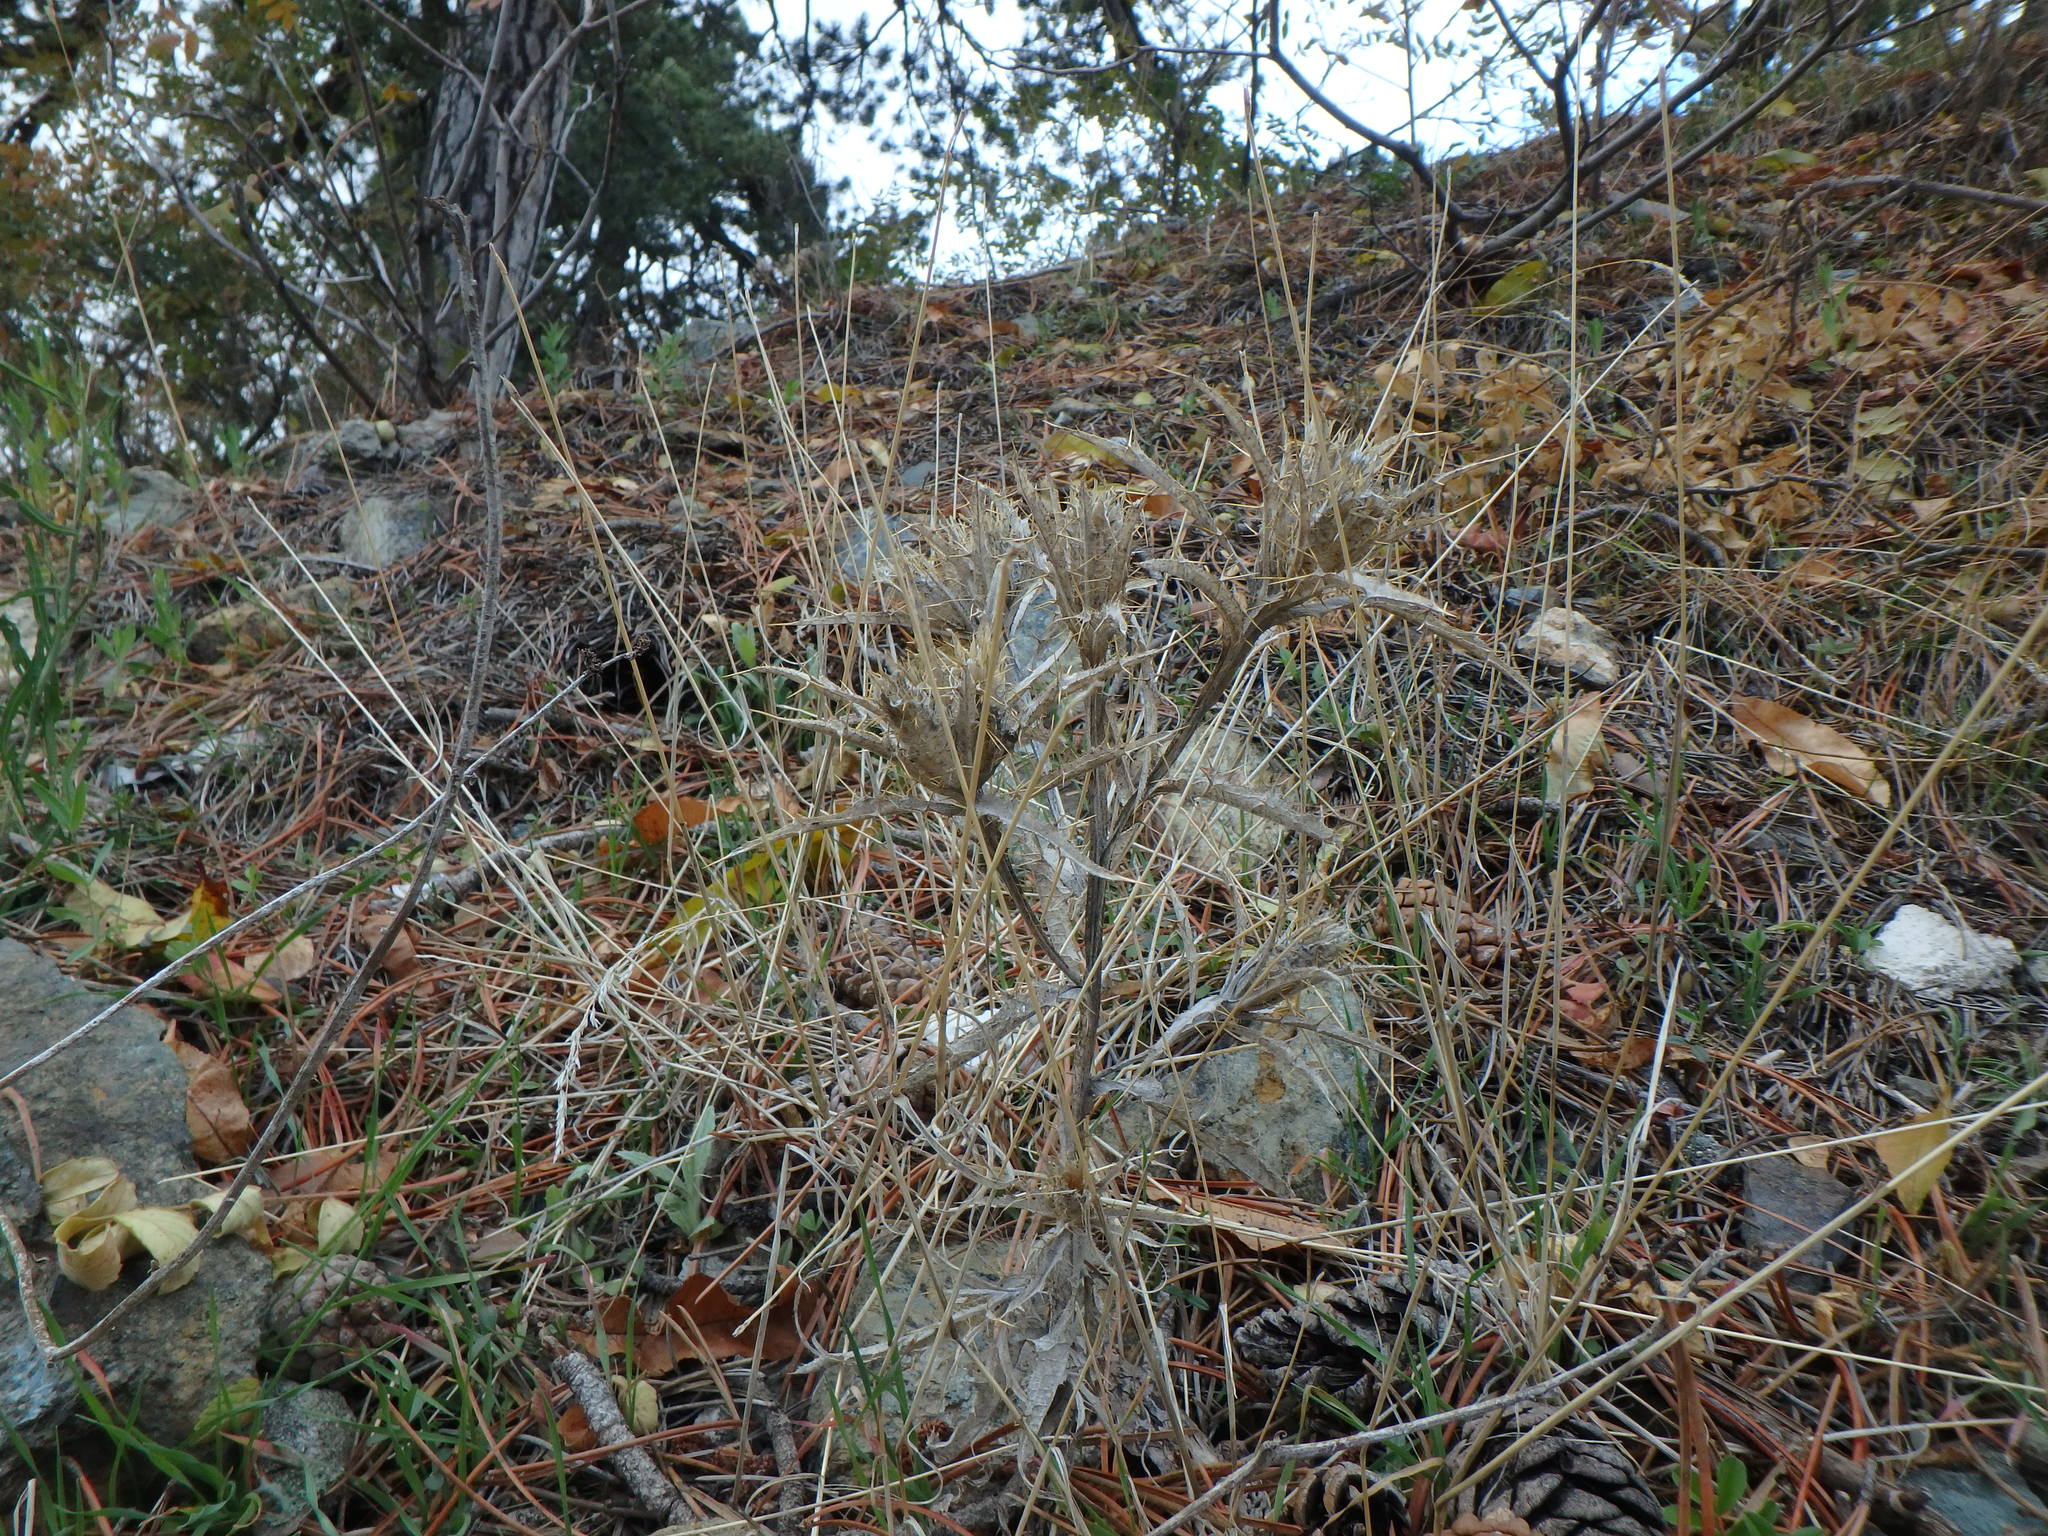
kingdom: Plantae
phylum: Tracheophyta
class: Magnoliopsida
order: Asterales
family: Asteraceae
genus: Picnomon
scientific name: Picnomon acarna
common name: Soldier thistle
